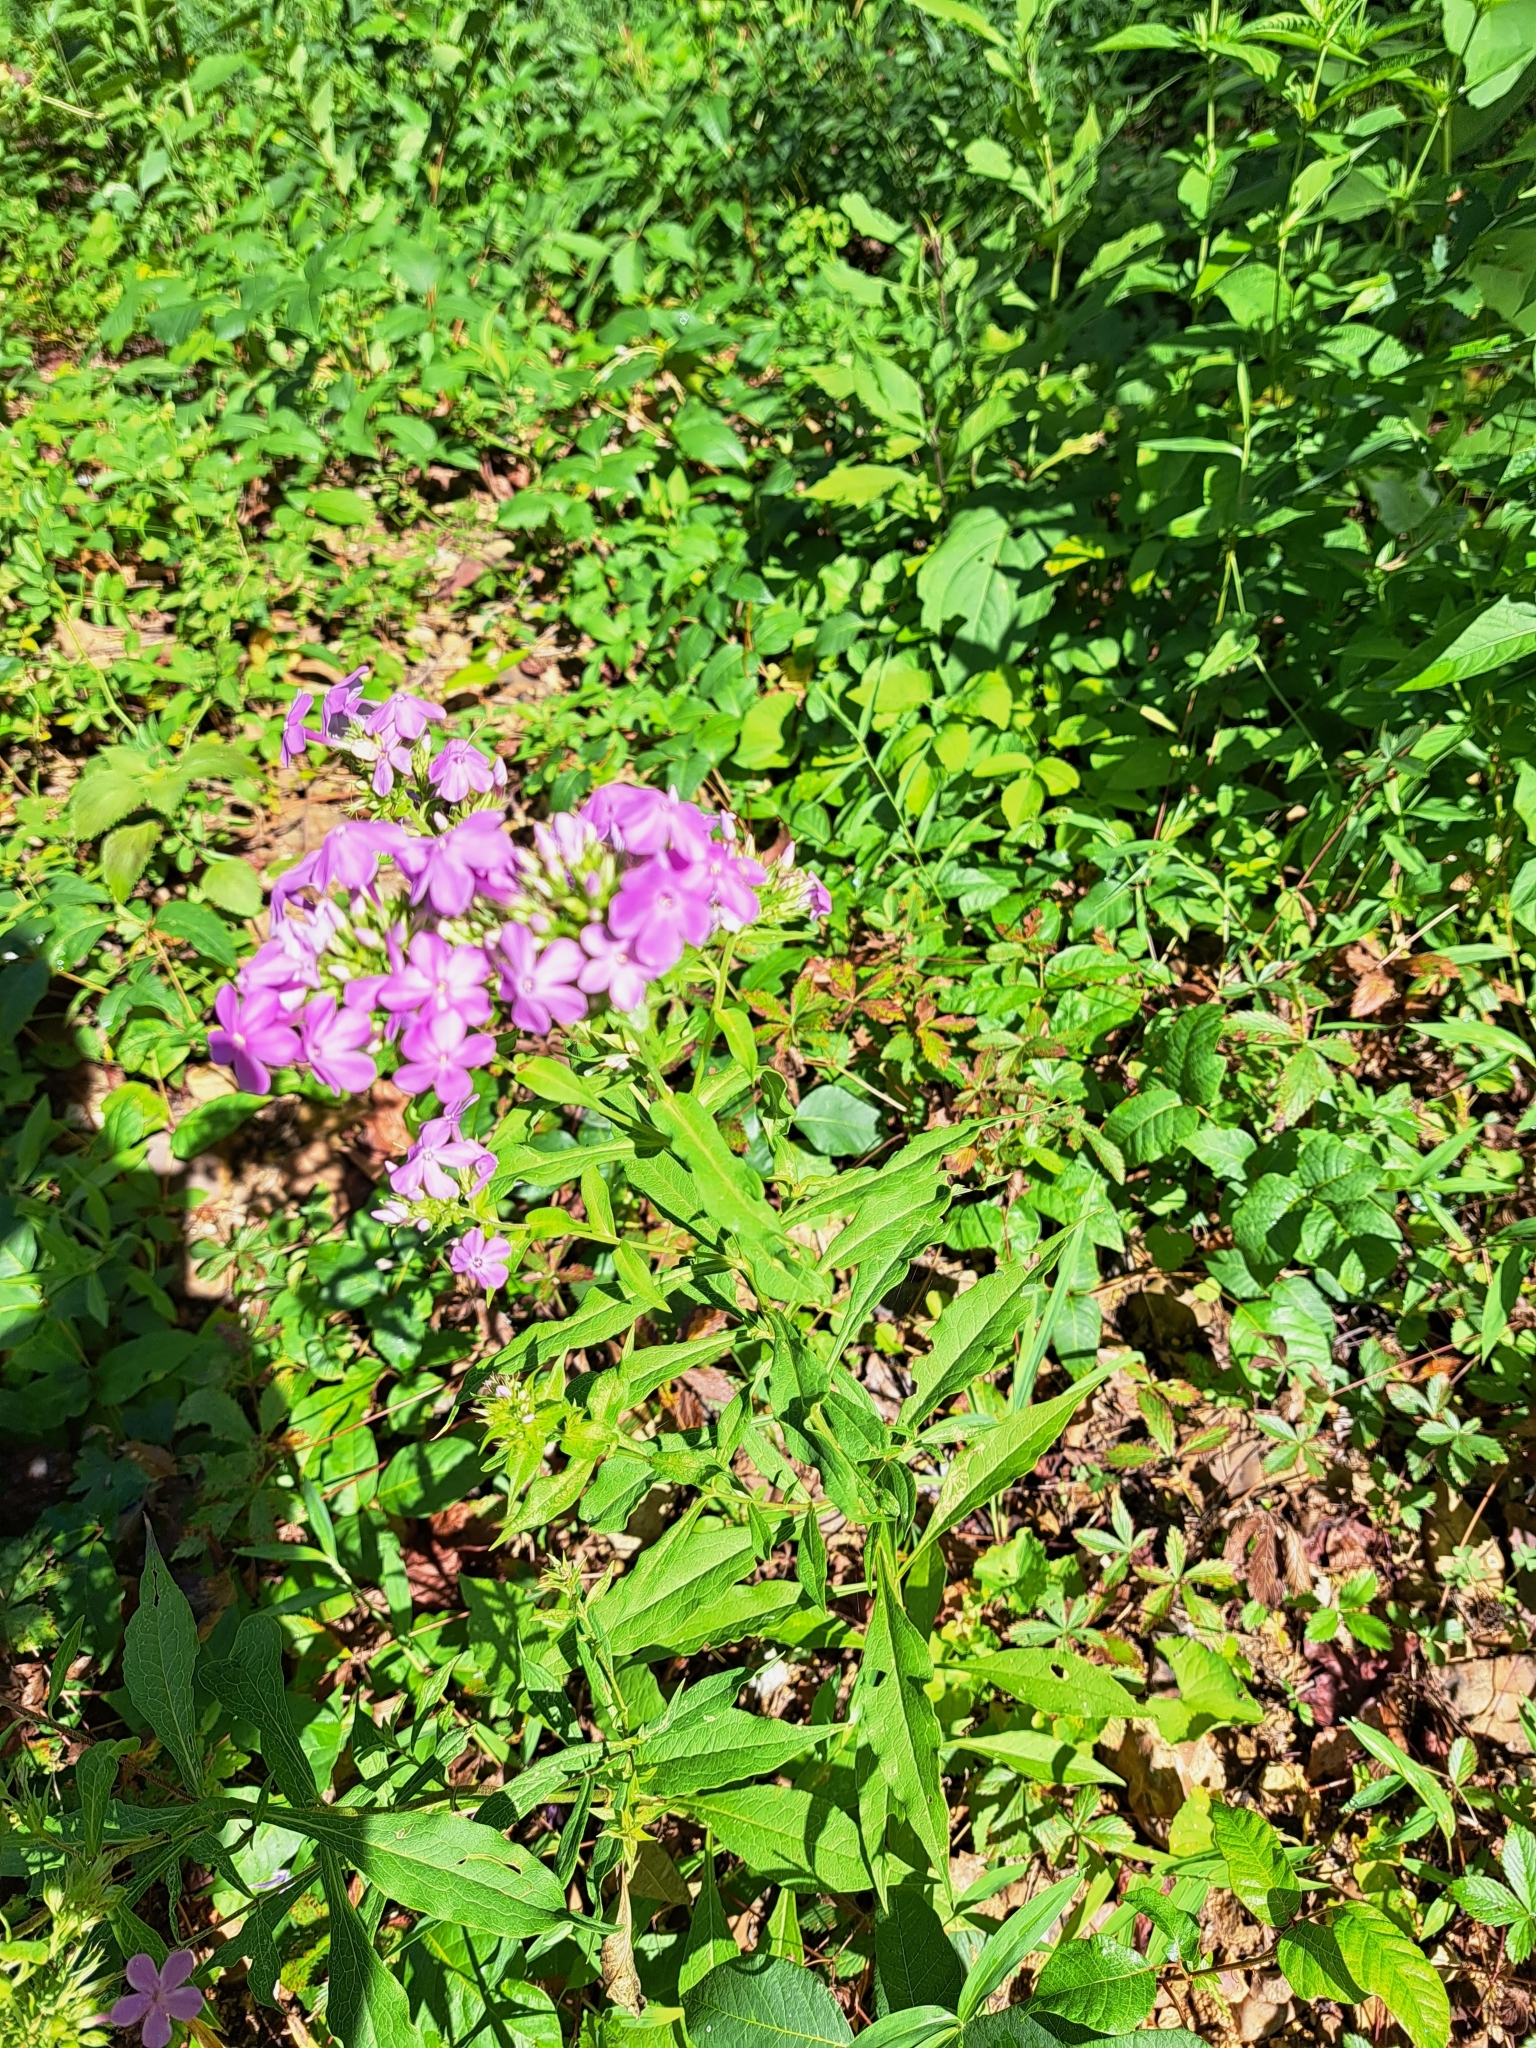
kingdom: Plantae
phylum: Tracheophyta
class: Magnoliopsida
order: Ericales
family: Polemoniaceae
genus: Phlox
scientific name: Phlox paniculata
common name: Fall phlox
